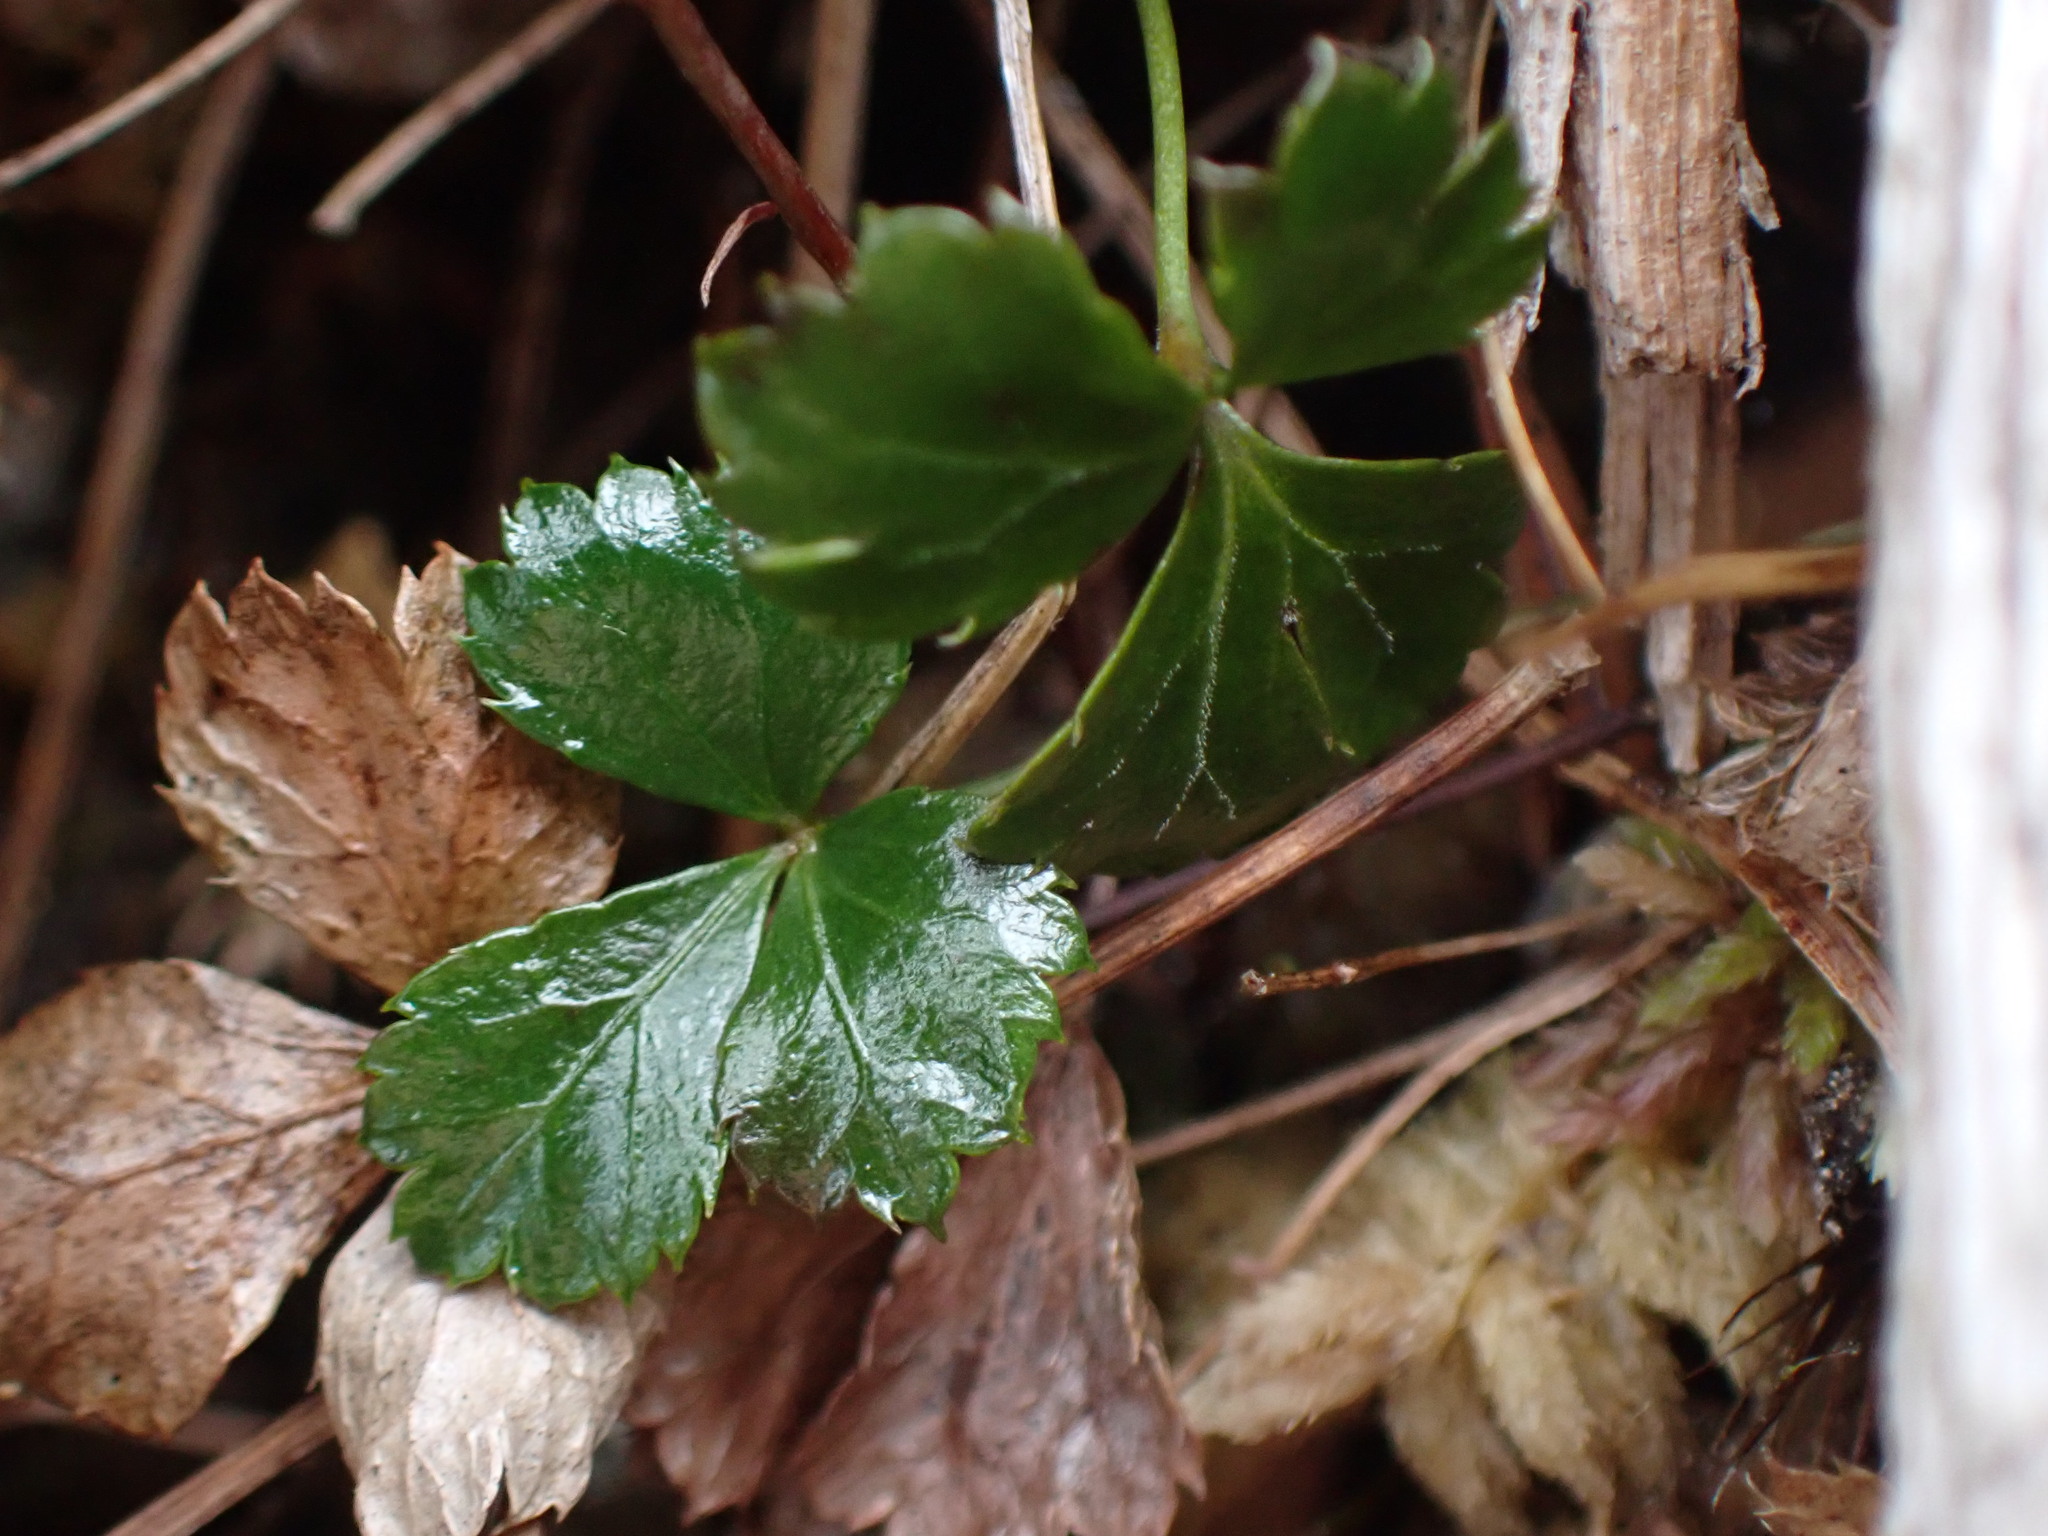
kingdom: Plantae
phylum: Tracheophyta
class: Magnoliopsida
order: Ranunculales
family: Ranunculaceae
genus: Coptis
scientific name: Coptis trifolia
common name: Canker-root
